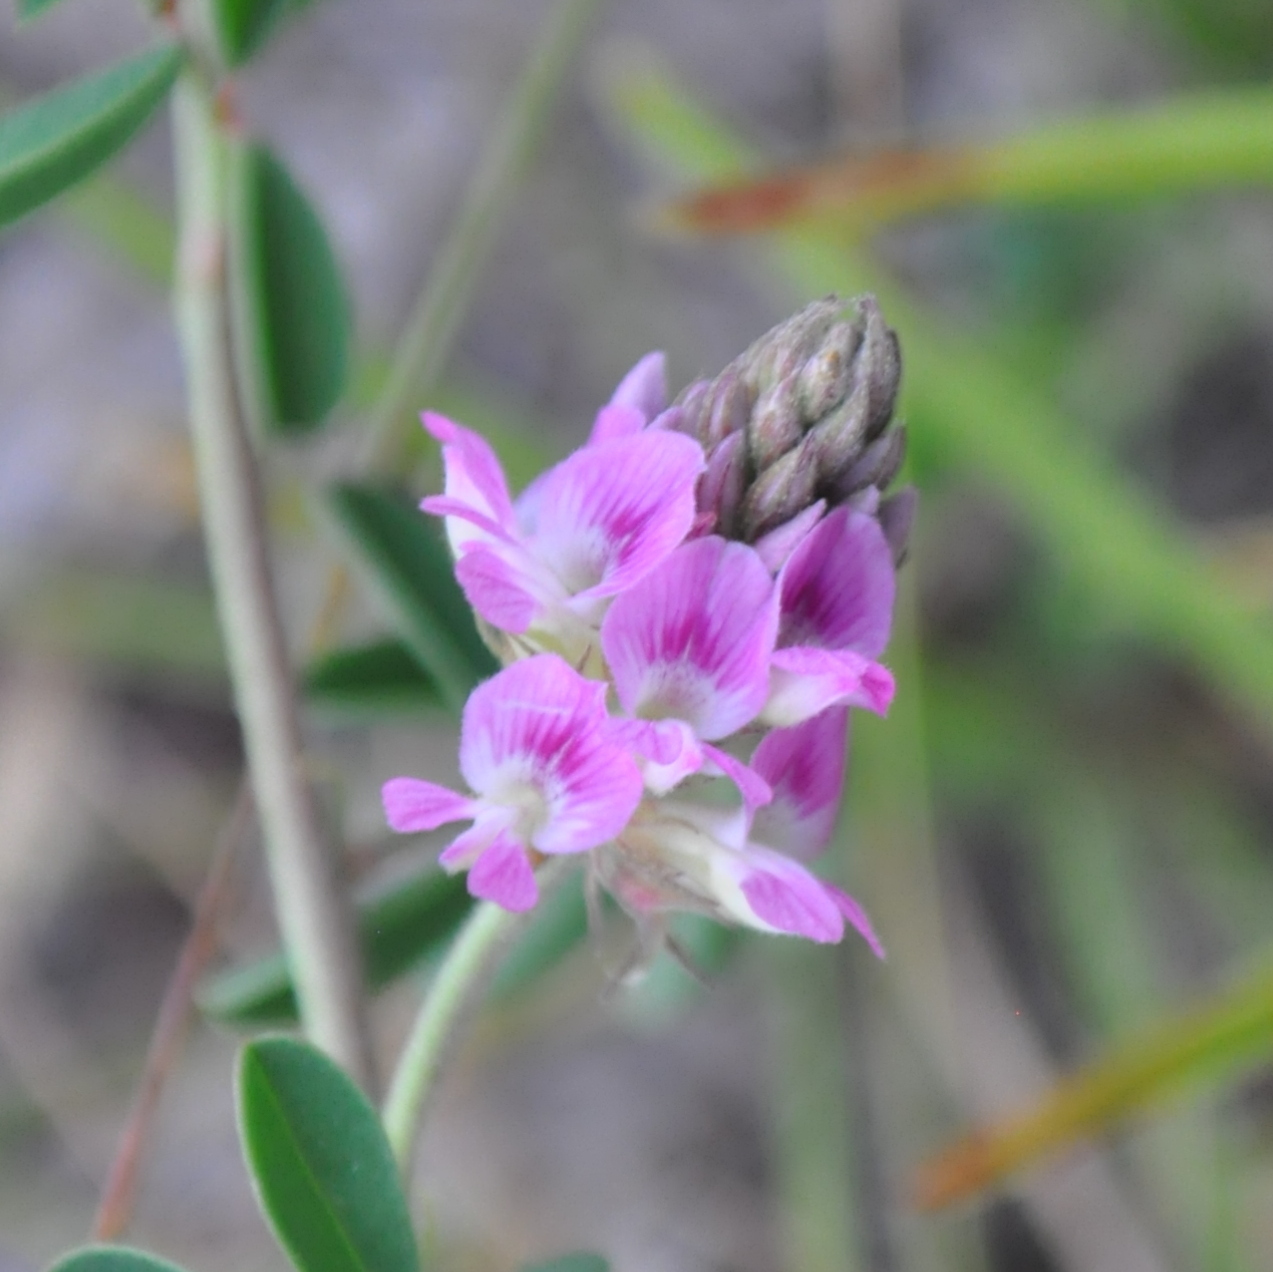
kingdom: Plantae
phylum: Tracheophyta
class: Magnoliopsida
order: Fabales
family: Fabaceae
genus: Indigofera
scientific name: Indigofera microcarpa
